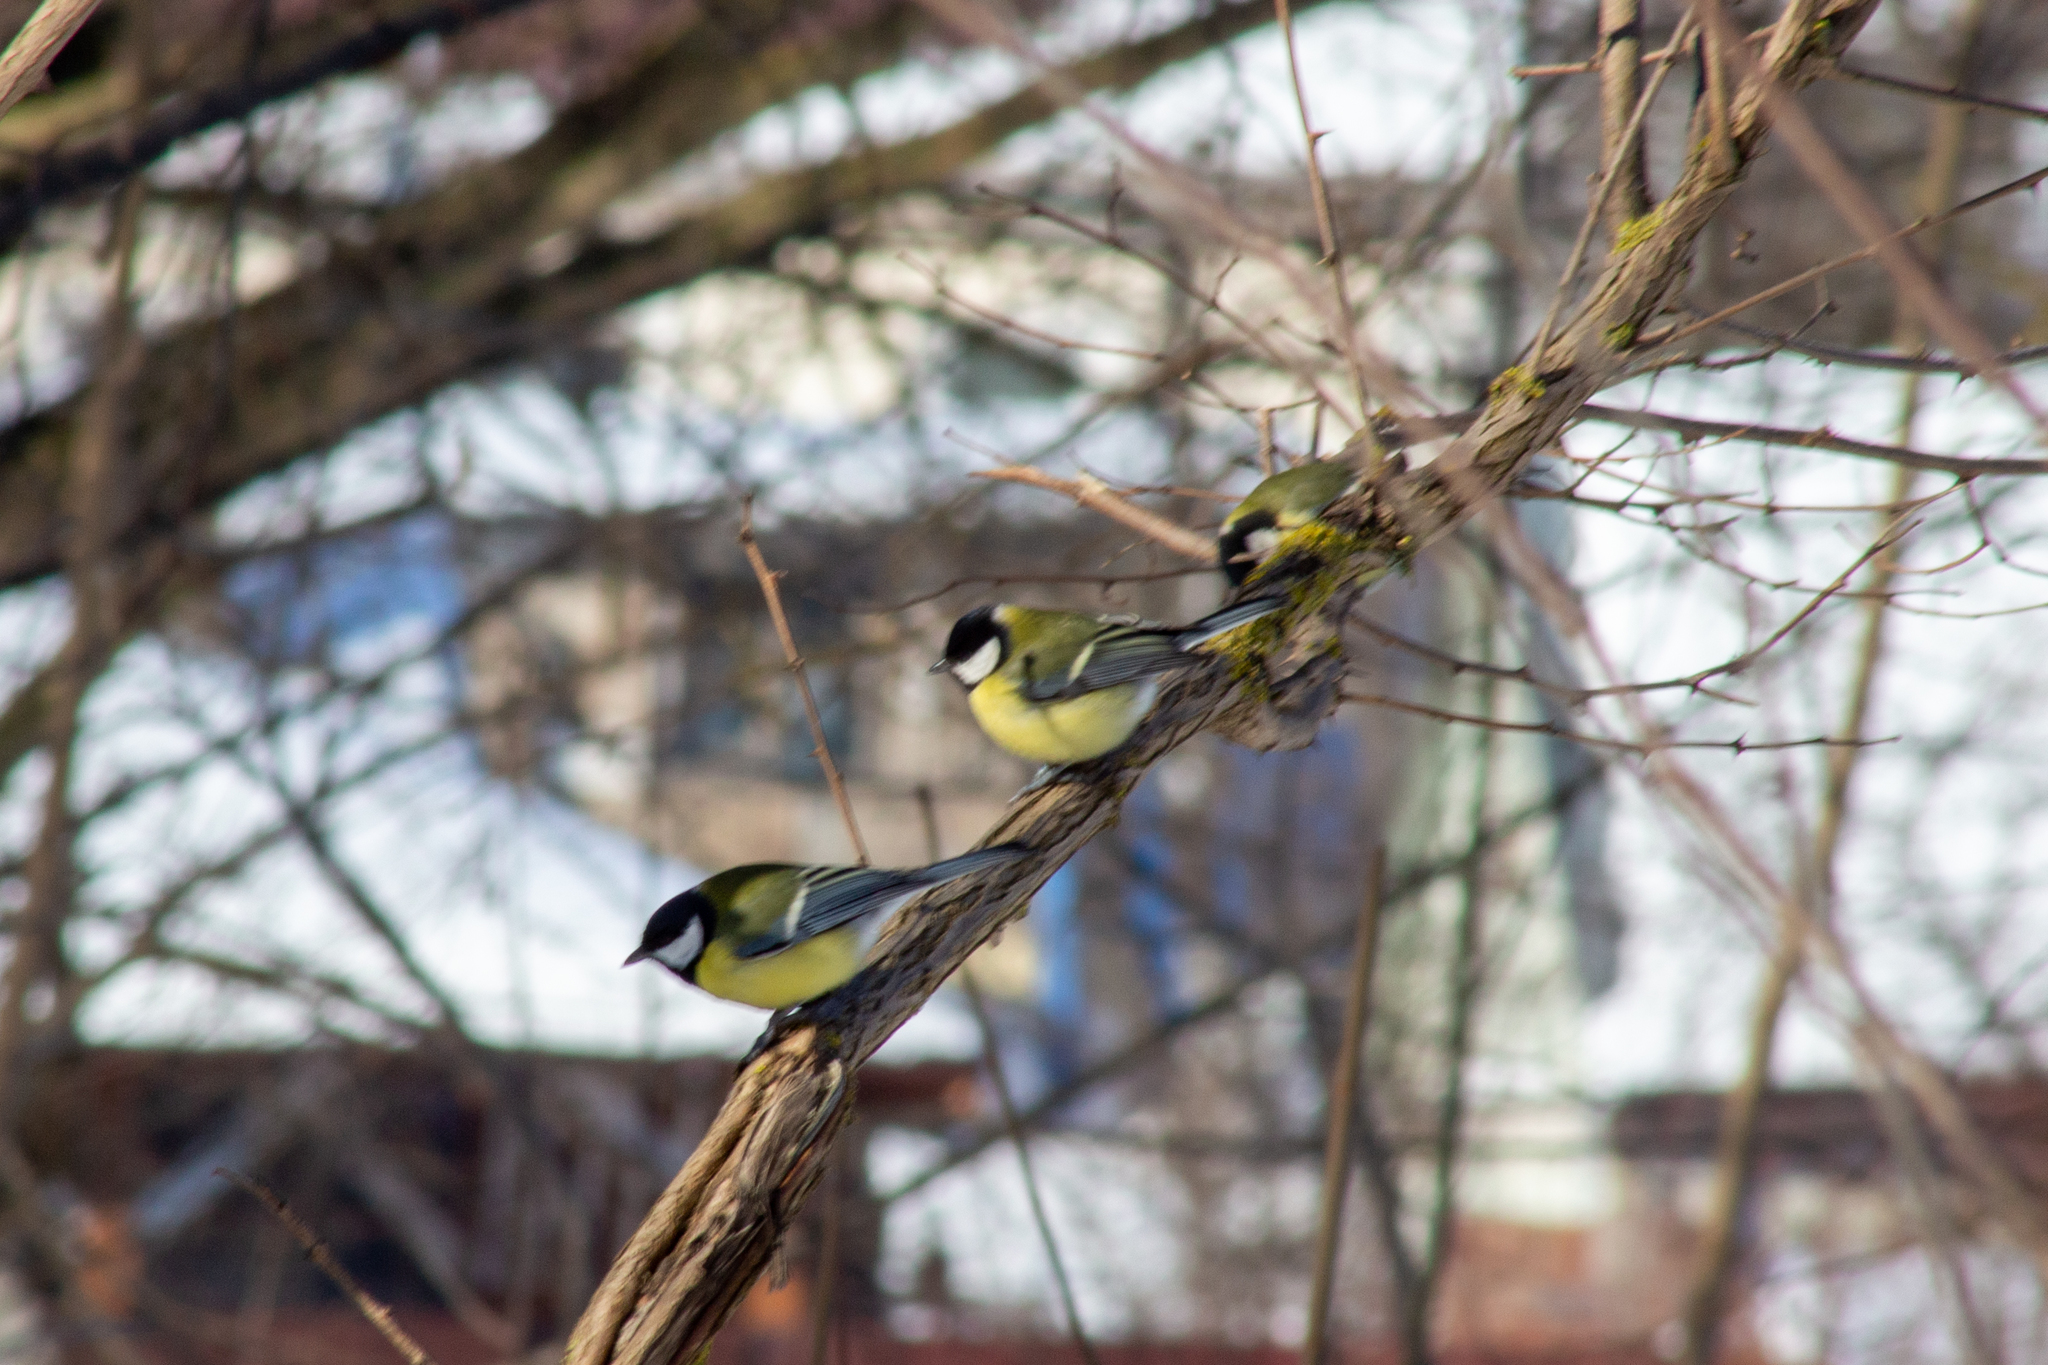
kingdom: Animalia
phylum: Chordata
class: Aves
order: Passeriformes
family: Paridae
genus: Parus
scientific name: Parus major
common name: Great tit
